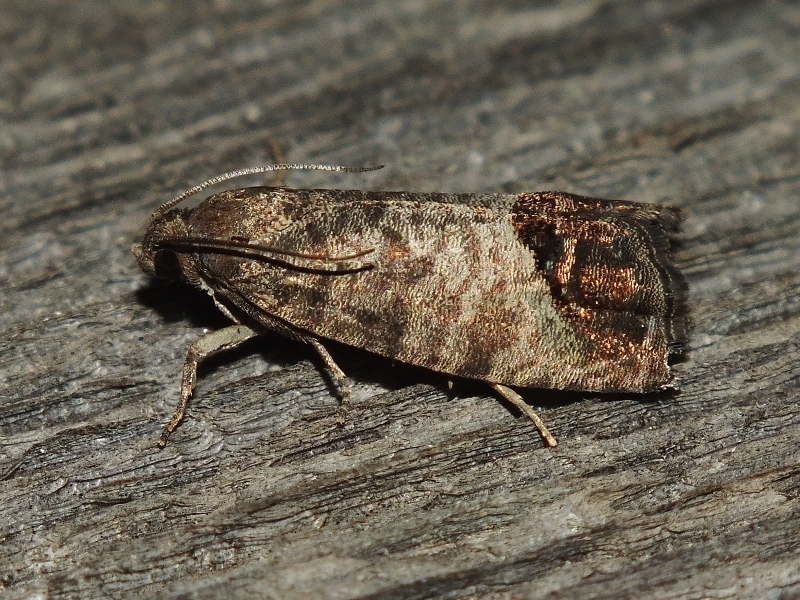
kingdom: Animalia
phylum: Arthropoda
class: Insecta
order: Lepidoptera
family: Tortricidae
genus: Cydia
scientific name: Cydia pomonella
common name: Codling moth
